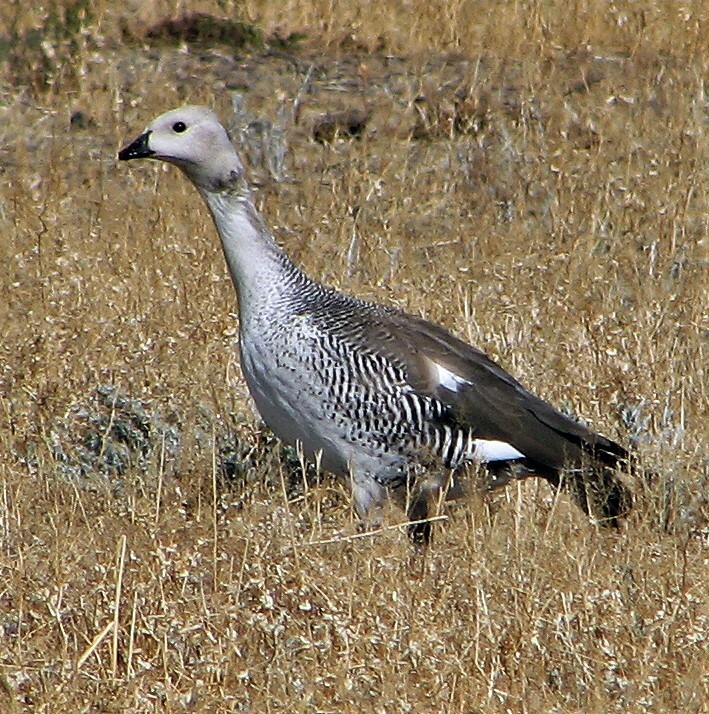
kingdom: Animalia
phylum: Chordata
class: Aves
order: Anseriformes
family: Anatidae
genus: Chloephaga
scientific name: Chloephaga picta
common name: Upland goose
